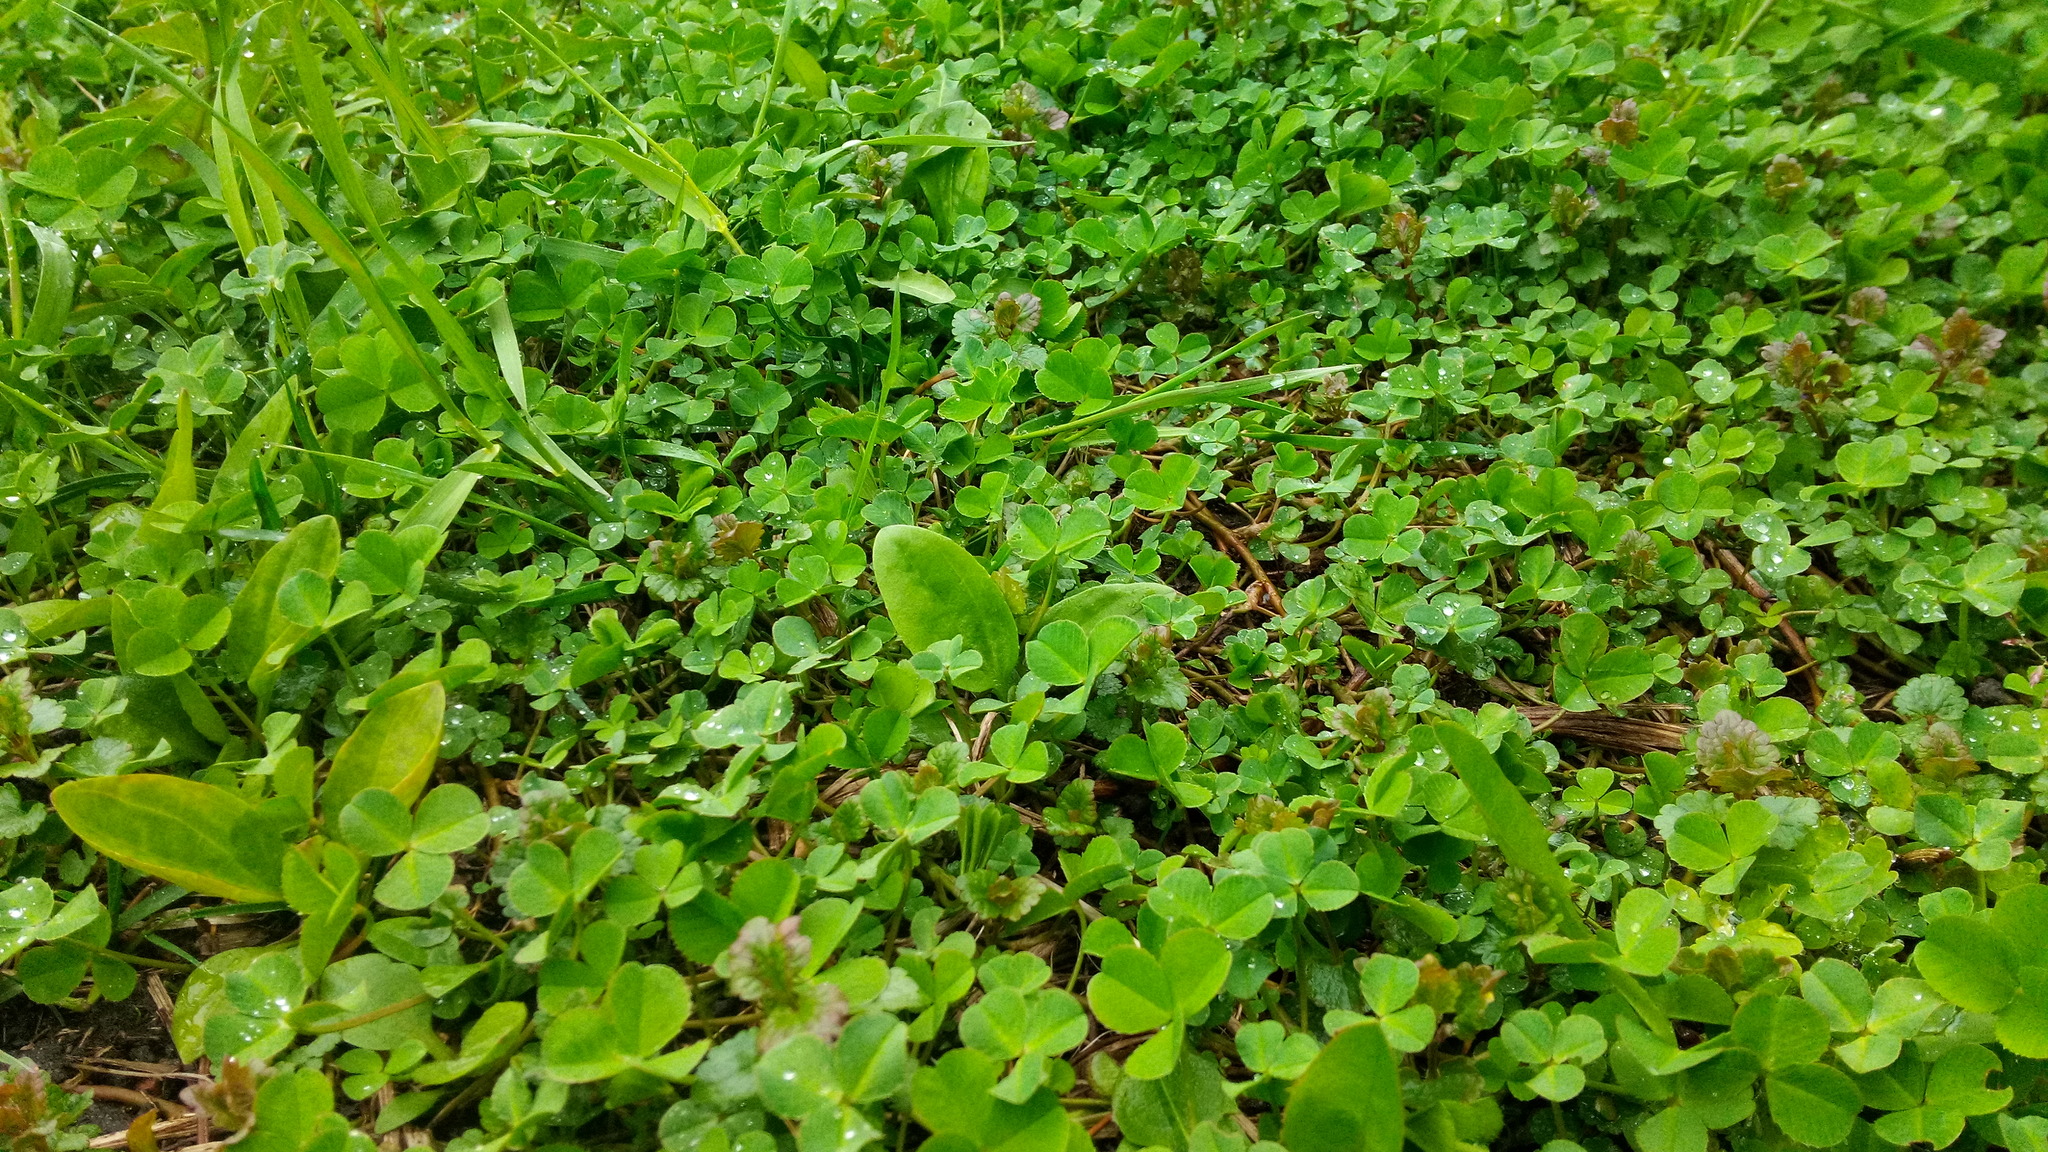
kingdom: Plantae
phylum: Tracheophyta
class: Magnoliopsida
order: Fabales
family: Fabaceae
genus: Trifolium
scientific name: Trifolium repens
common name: White clover
